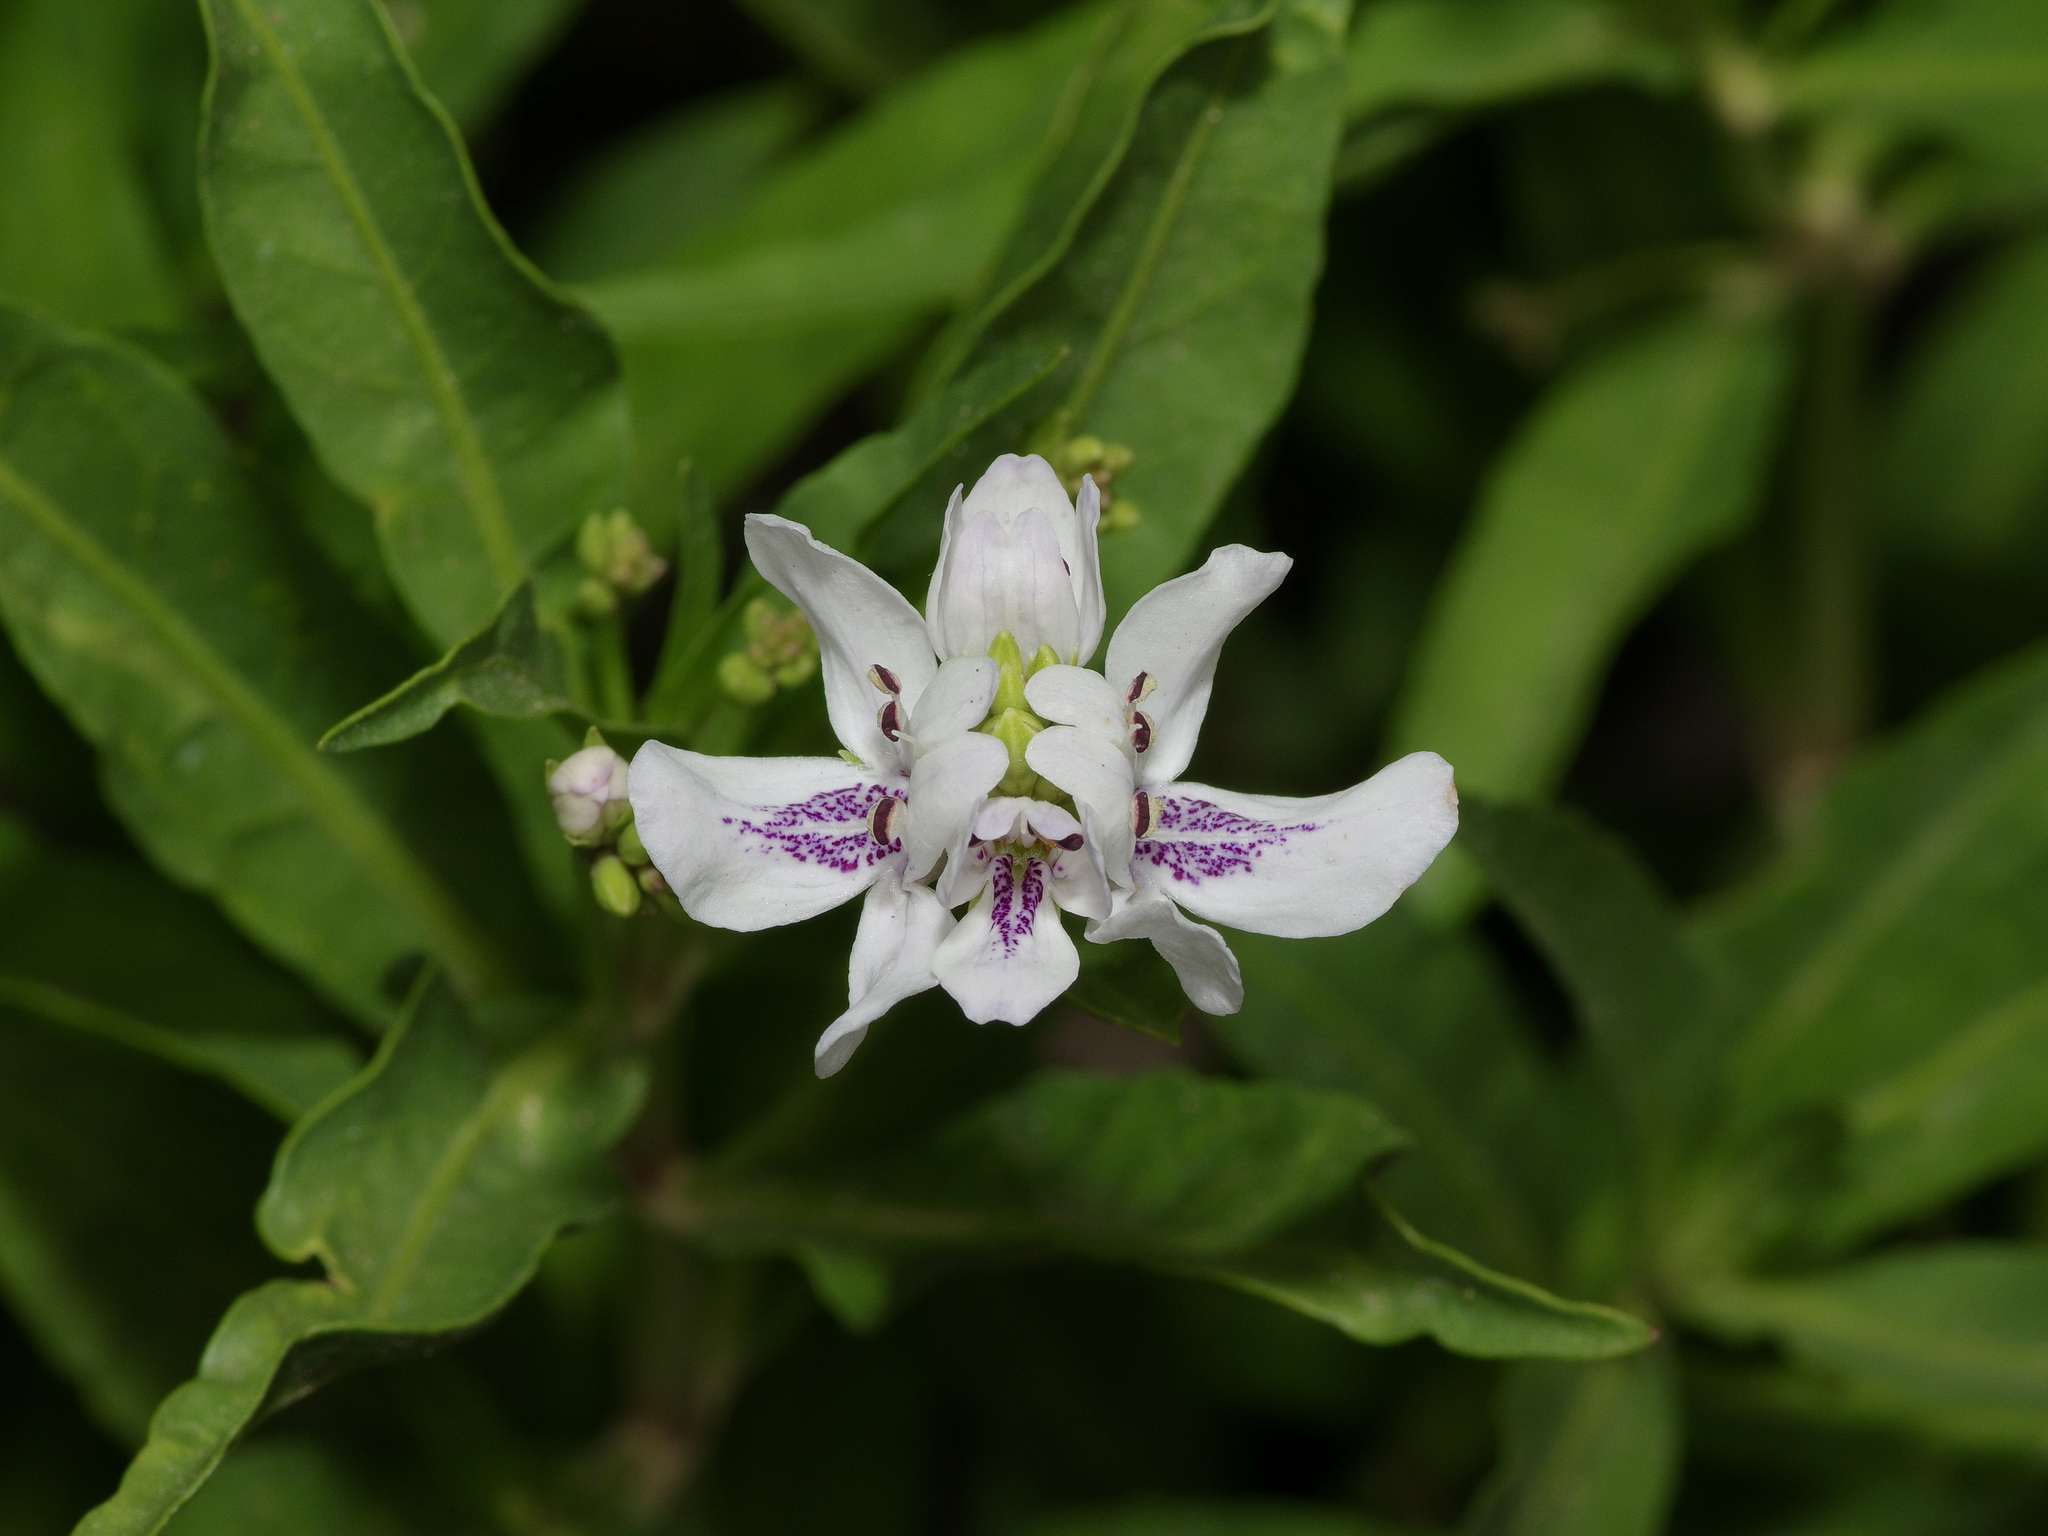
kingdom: Plantae
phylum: Tracheophyta
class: Magnoliopsida
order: Lamiales
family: Acanthaceae
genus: Dianthera
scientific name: Dianthera americana
